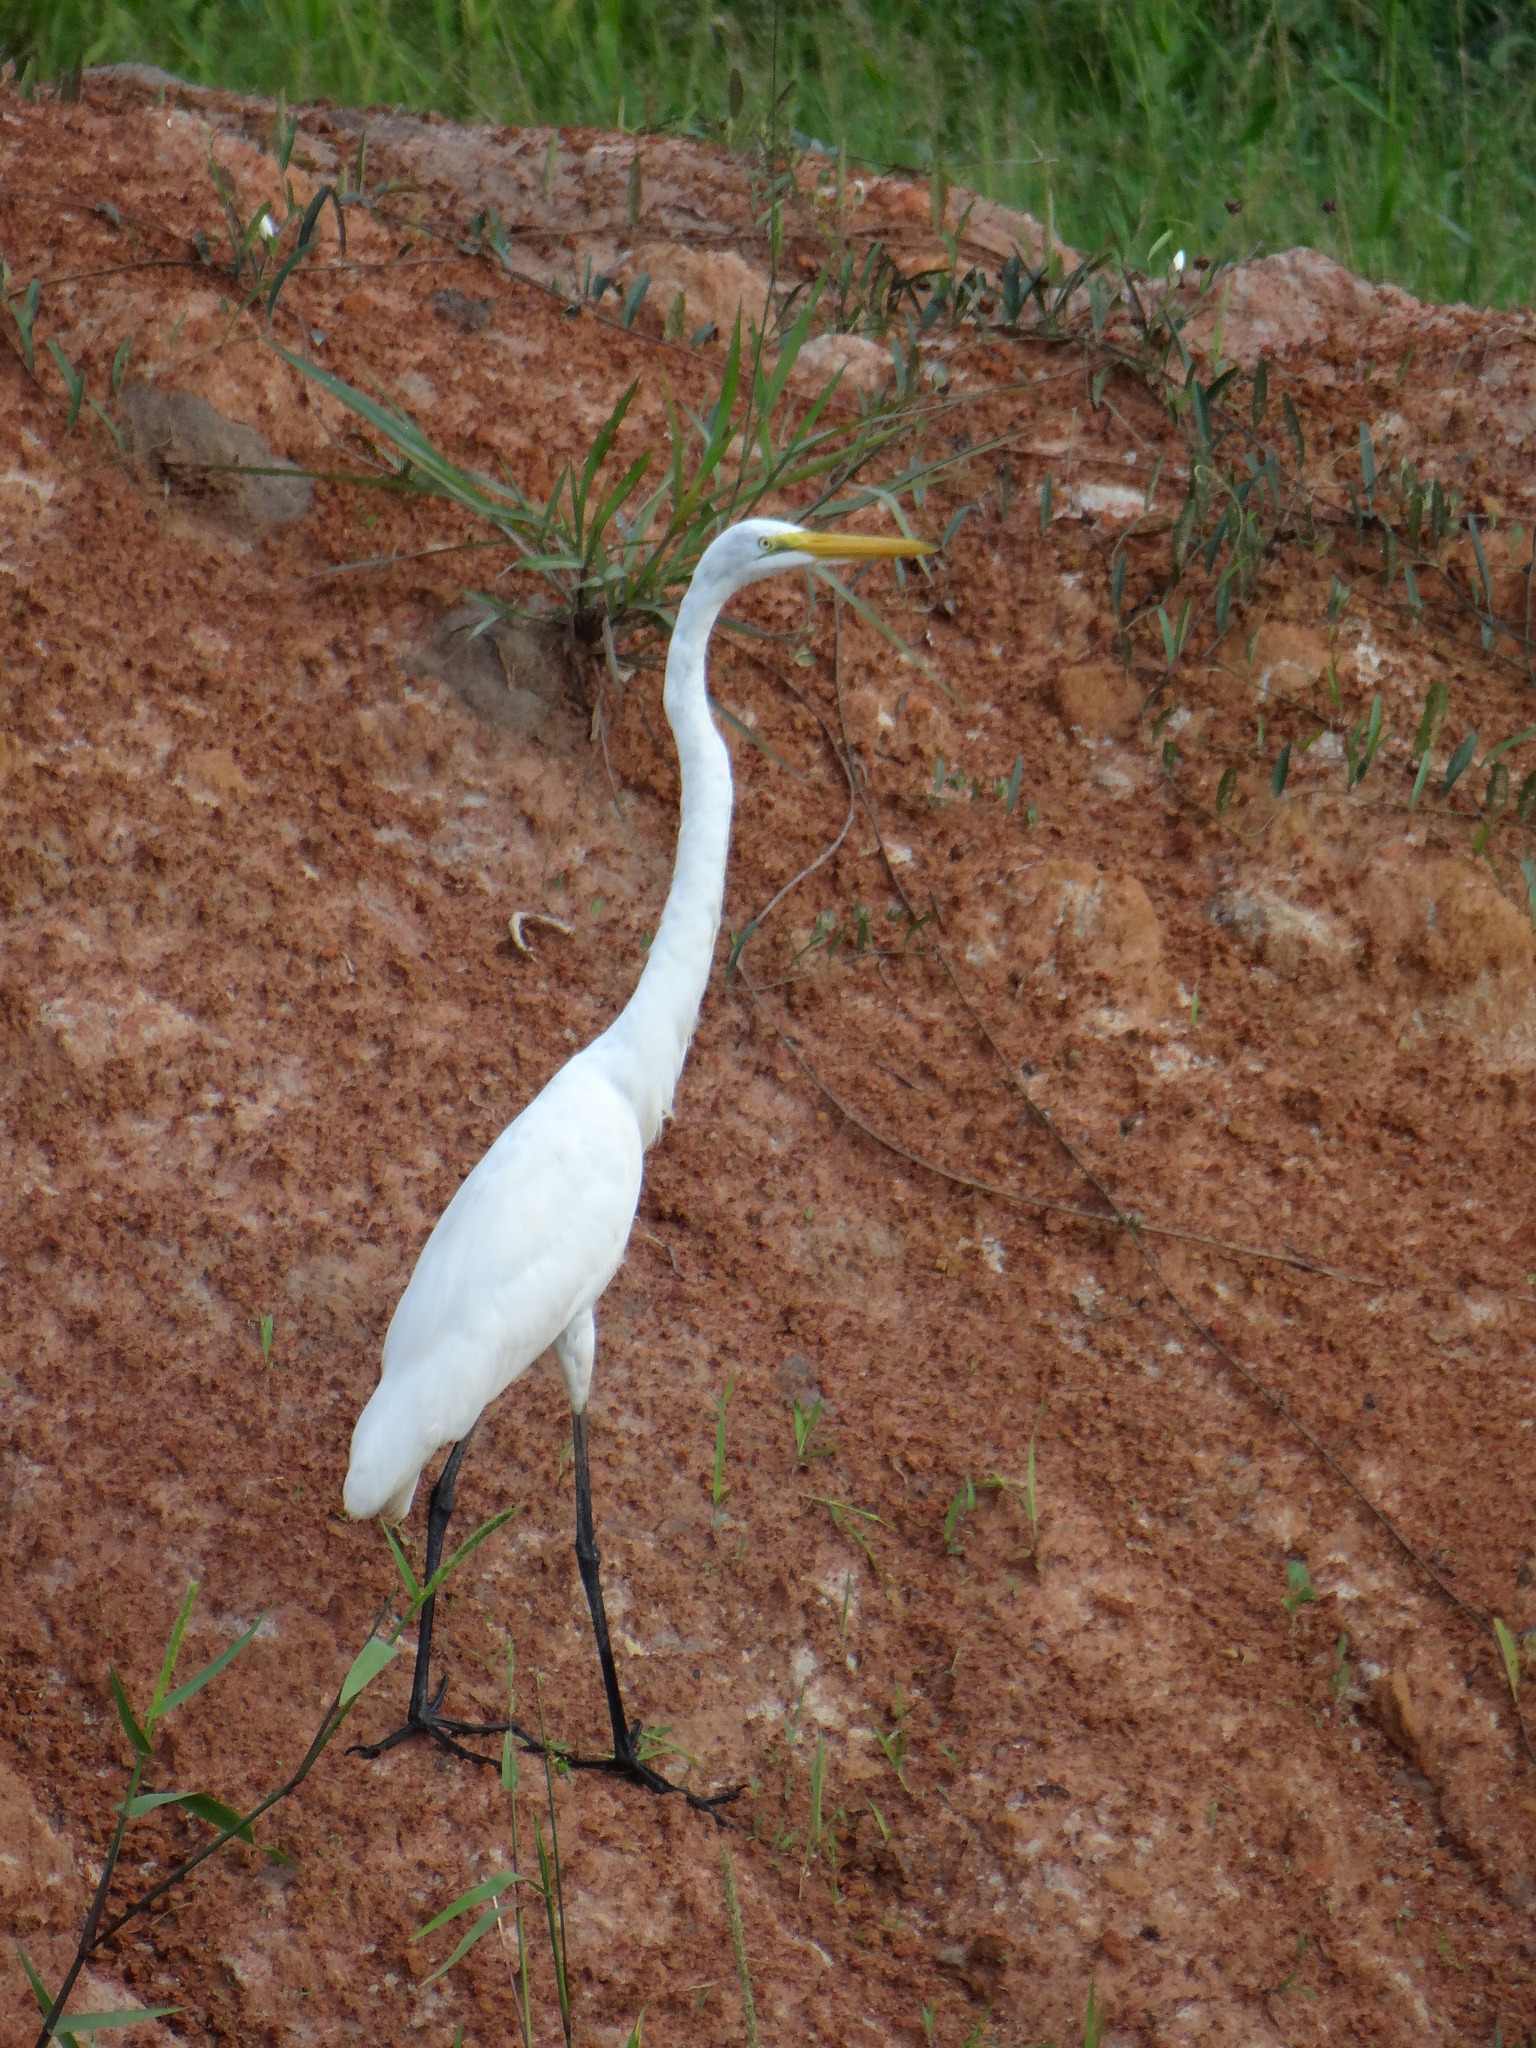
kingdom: Animalia
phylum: Chordata
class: Aves
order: Pelecaniformes
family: Ardeidae
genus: Ardea
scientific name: Ardea alba
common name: Great egret
